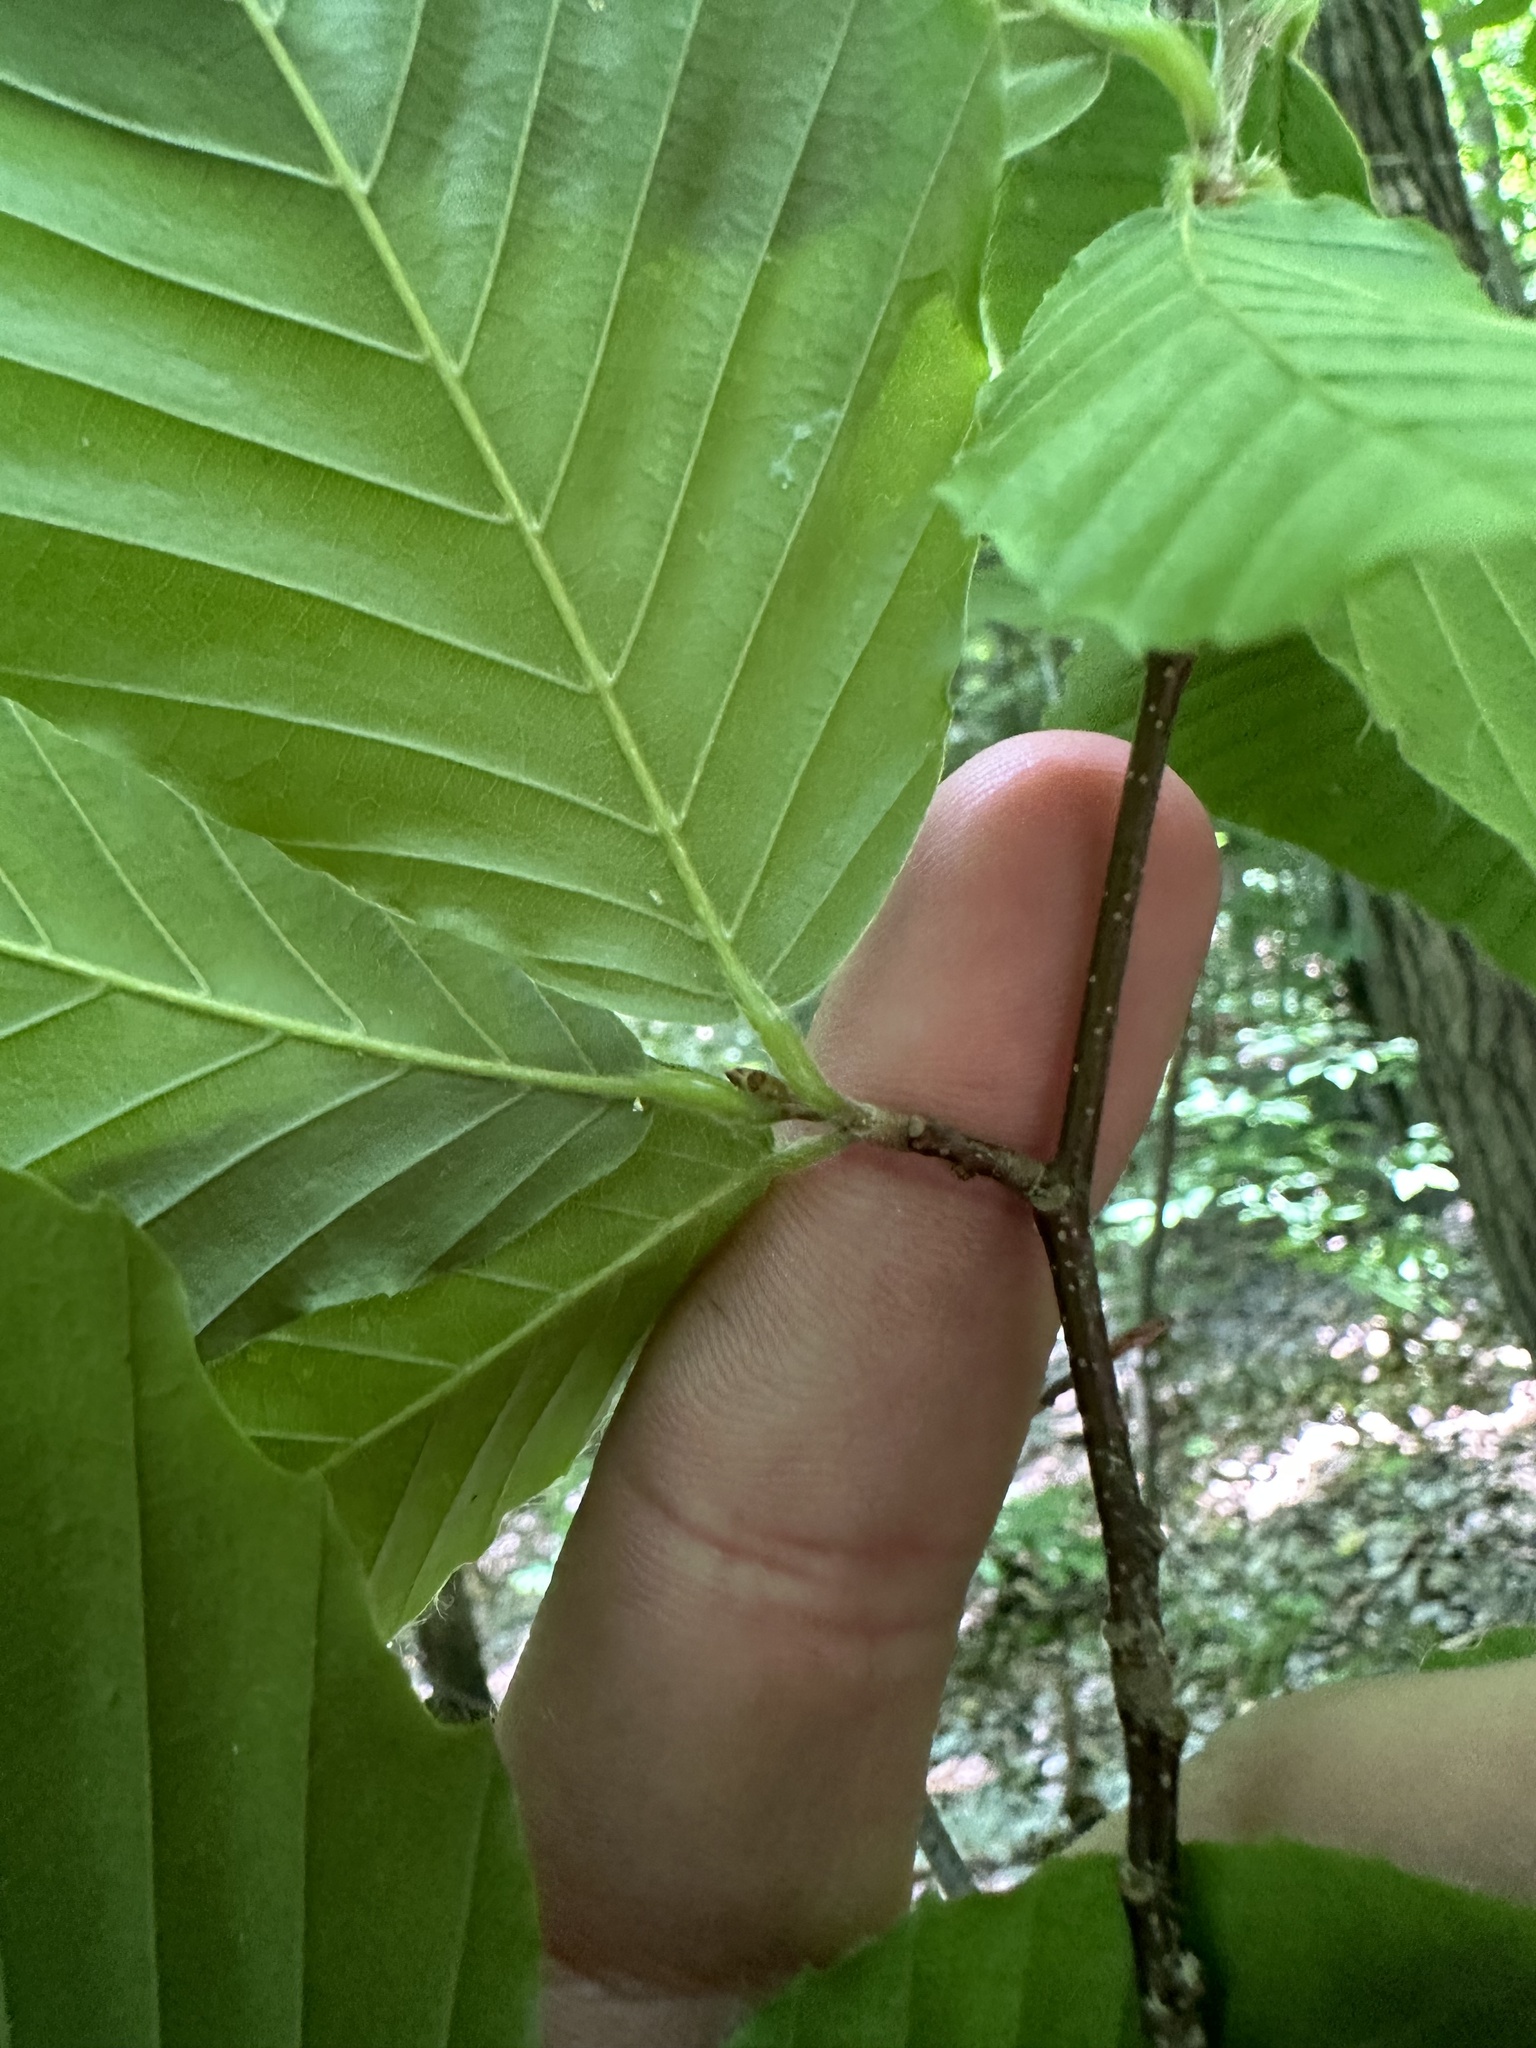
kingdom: Plantae
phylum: Tracheophyta
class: Magnoliopsida
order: Fagales
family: Fagaceae
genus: Fagus
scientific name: Fagus grandifolia
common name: American beech
